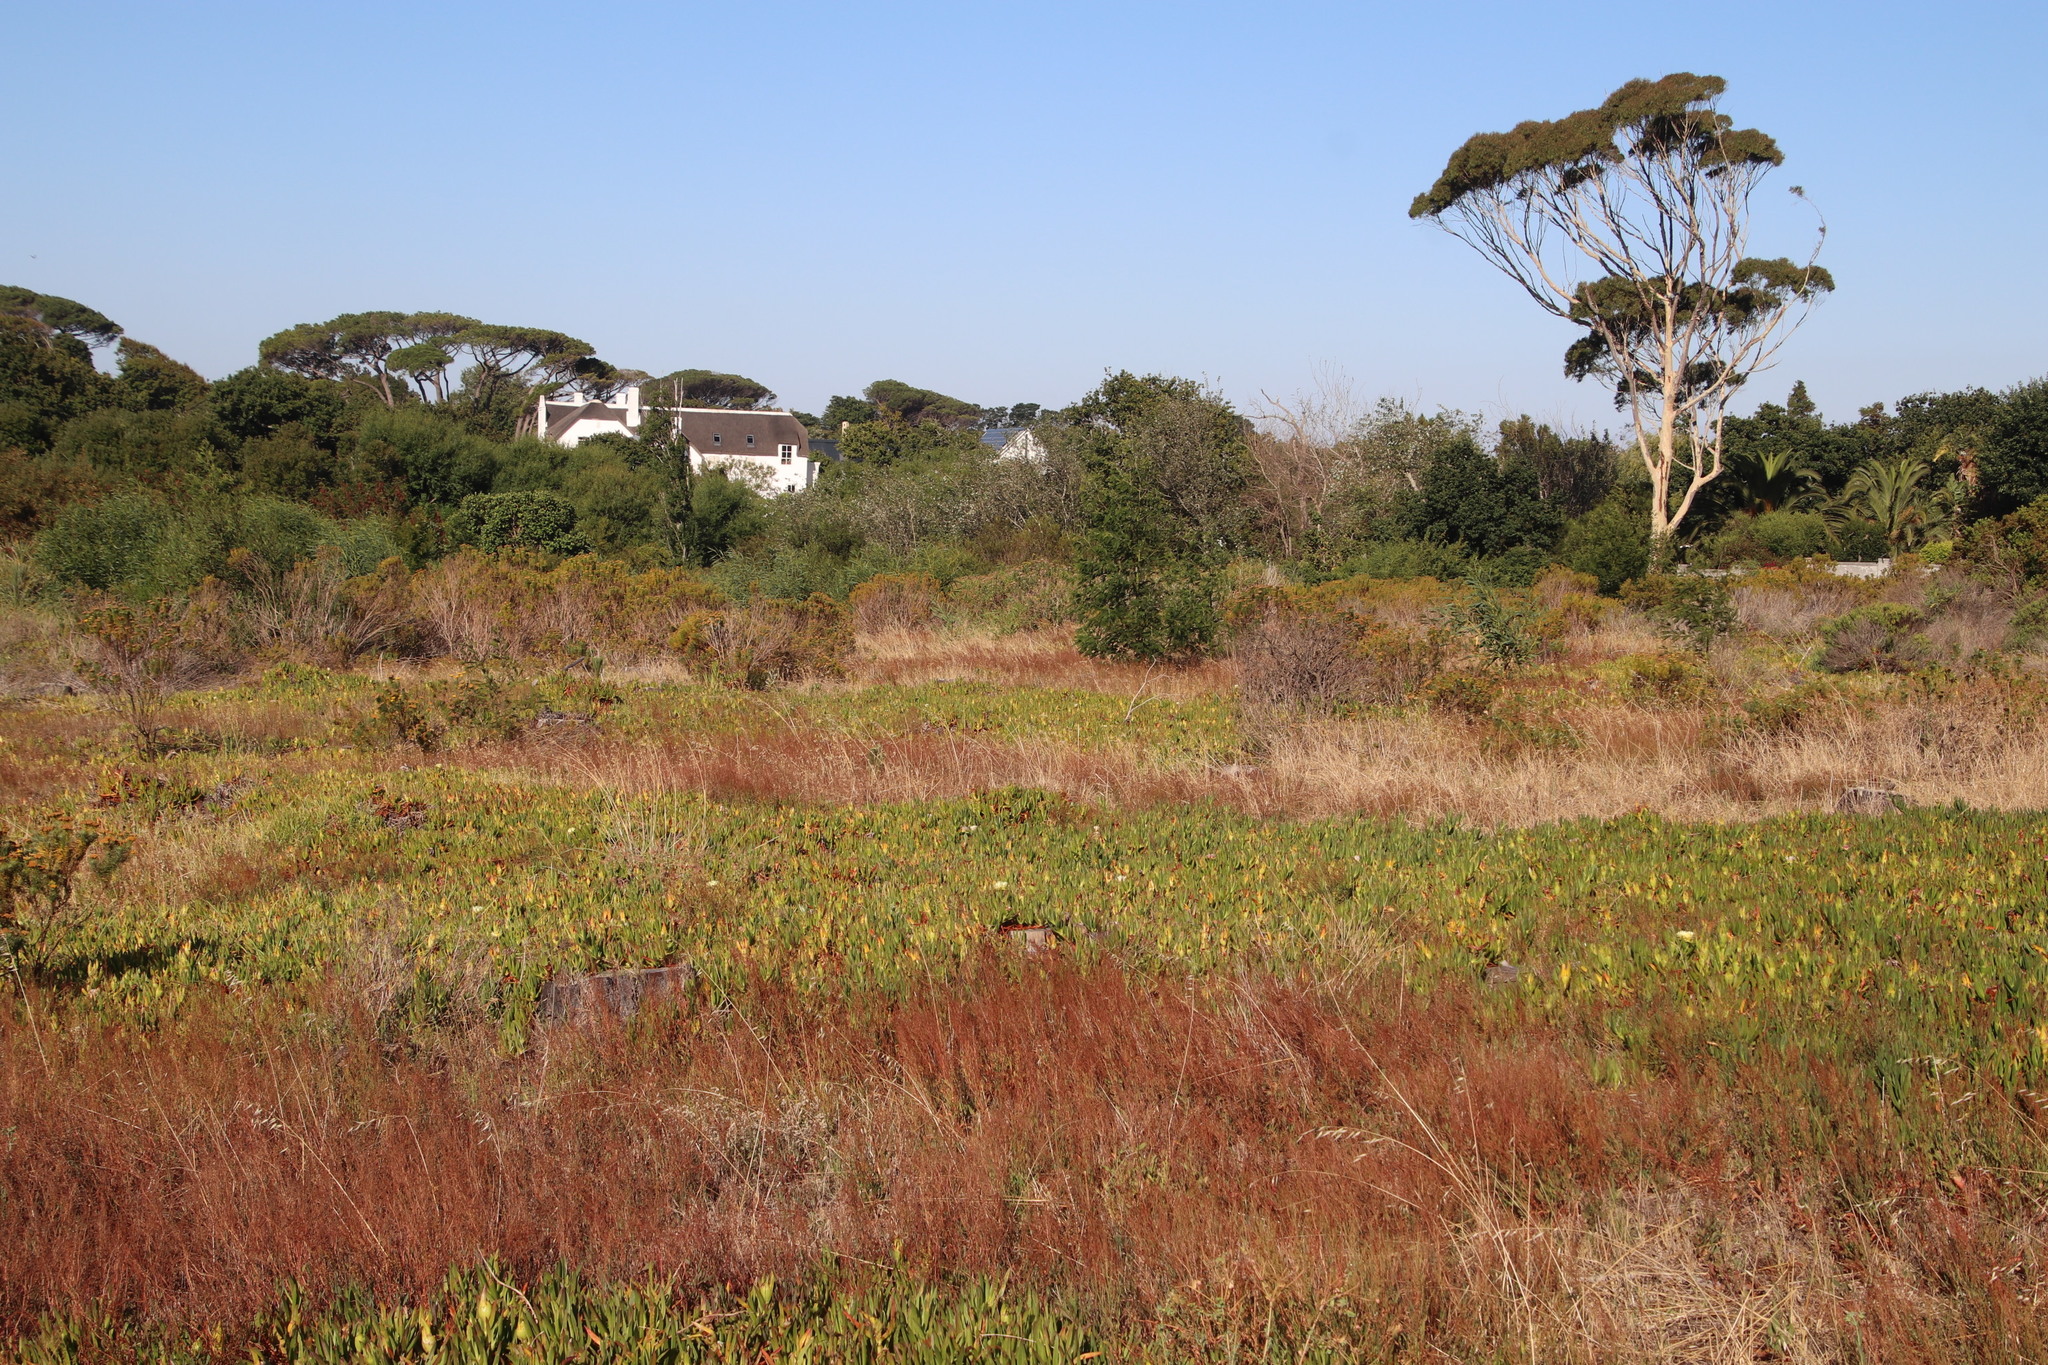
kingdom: Plantae
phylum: Tracheophyta
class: Magnoliopsida
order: Caryophyllales
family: Polygonaceae
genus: Rumex
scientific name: Rumex acetosella
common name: Common sheep sorrel
